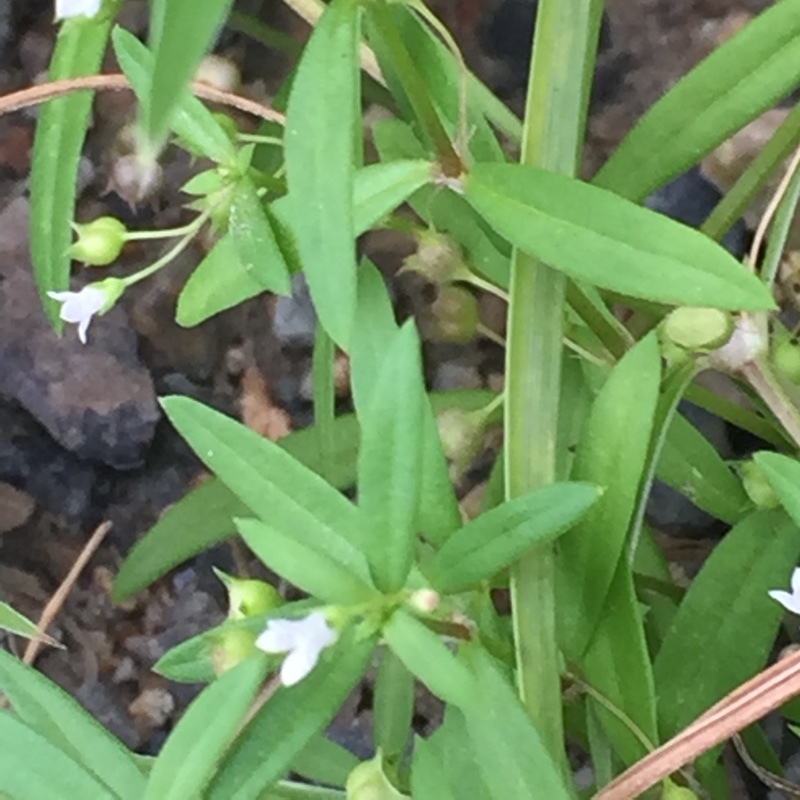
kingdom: Plantae
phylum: Tracheophyta
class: Magnoliopsida
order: Gentianales
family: Rubiaceae
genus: Oldenlandia
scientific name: Oldenlandia corymbosa
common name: Flat-top mille graines
